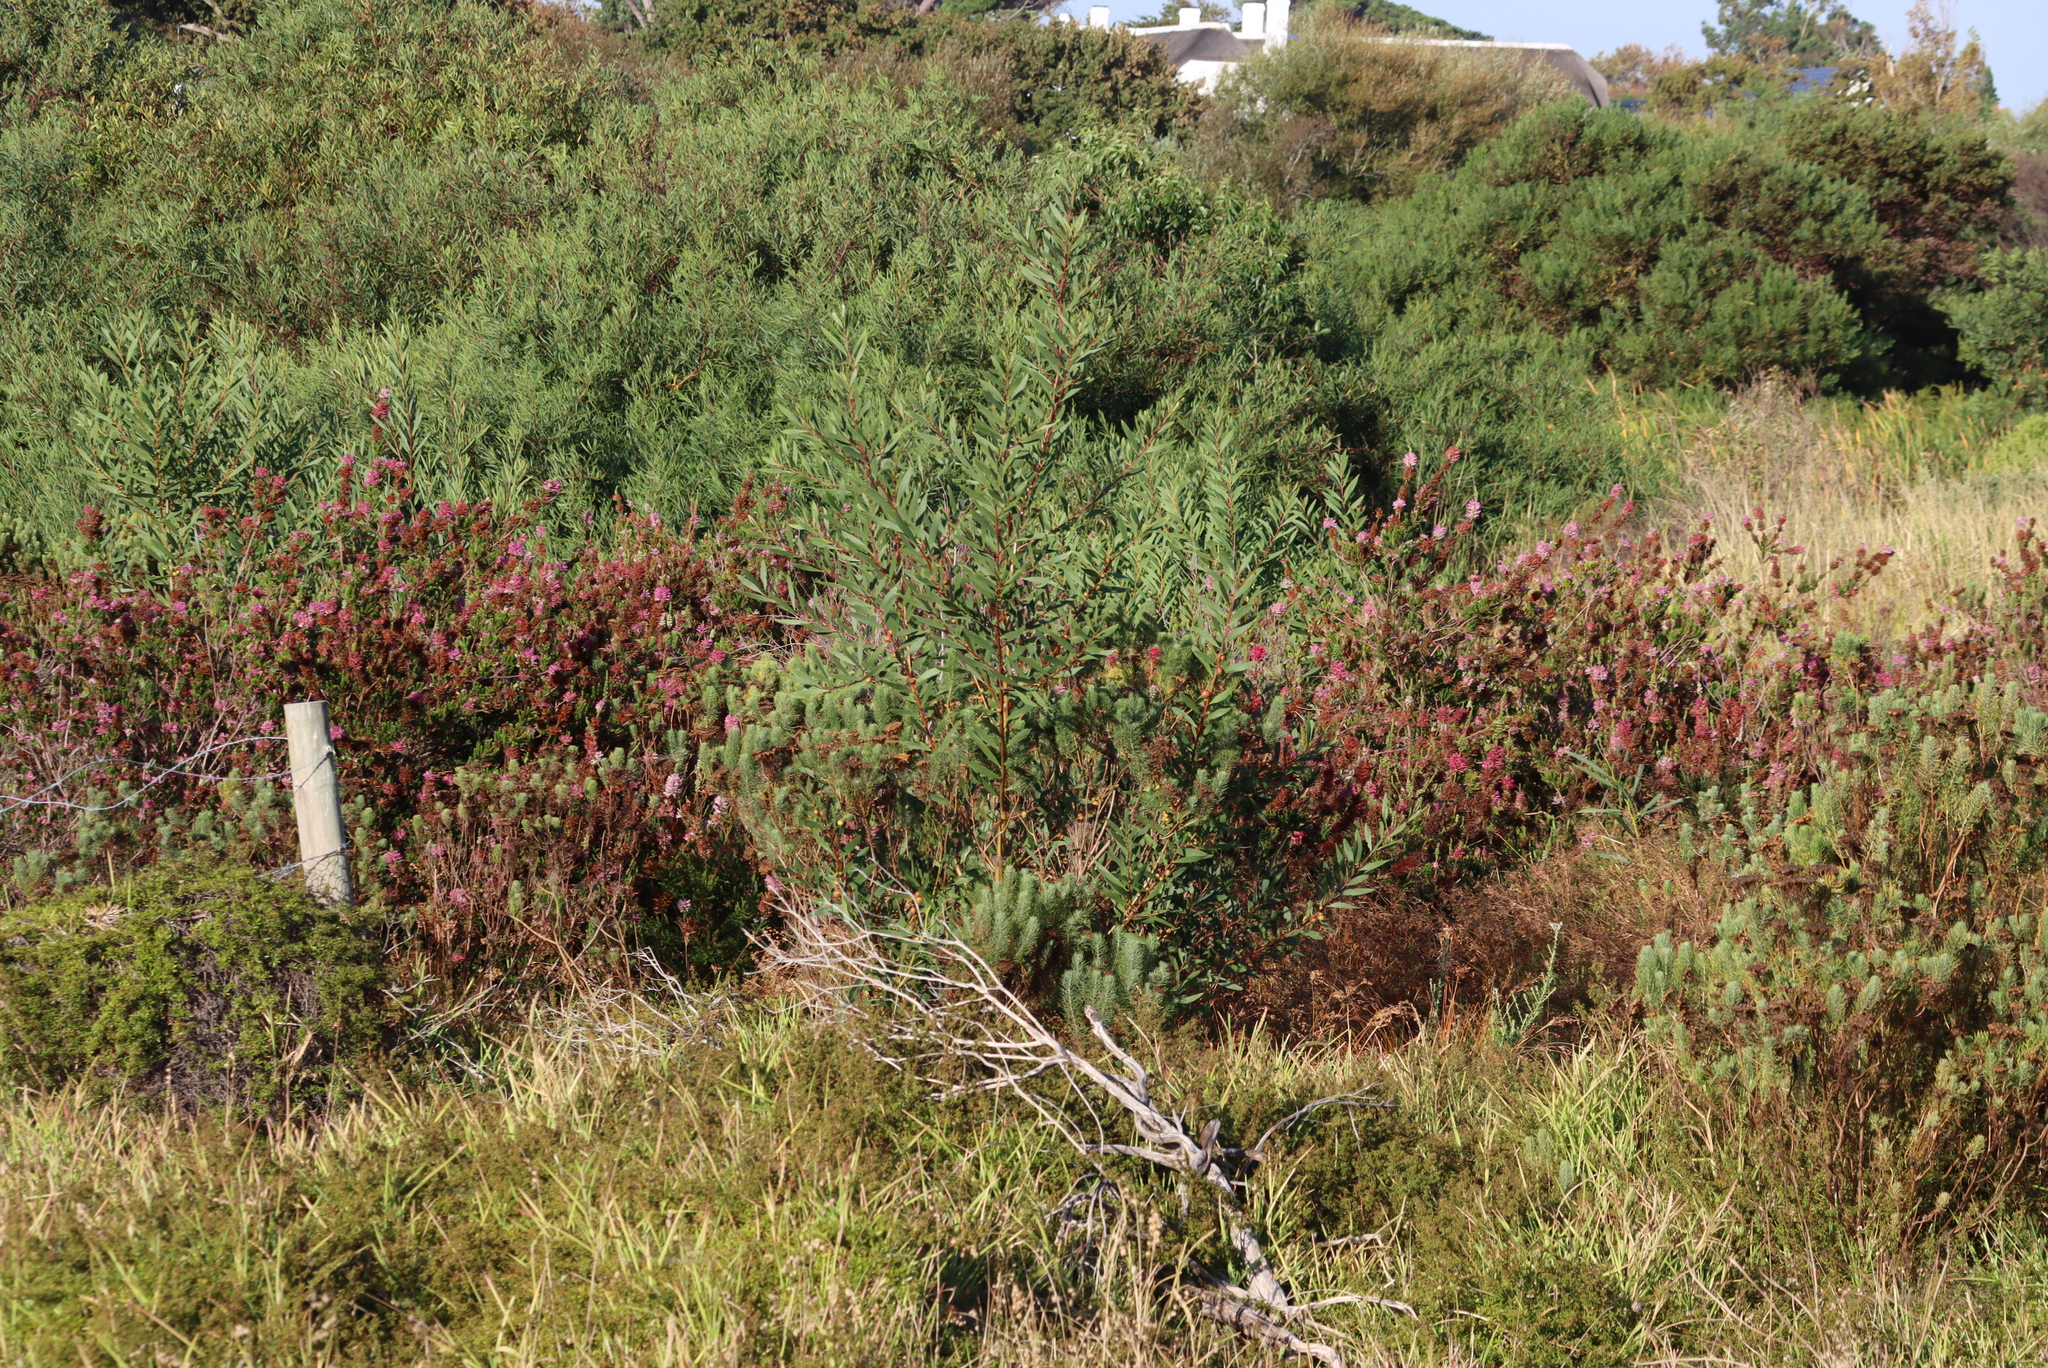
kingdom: Plantae
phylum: Tracheophyta
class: Magnoliopsida
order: Fabales
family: Fabaceae
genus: Acacia
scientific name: Acacia longifolia
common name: Sydney golden wattle
